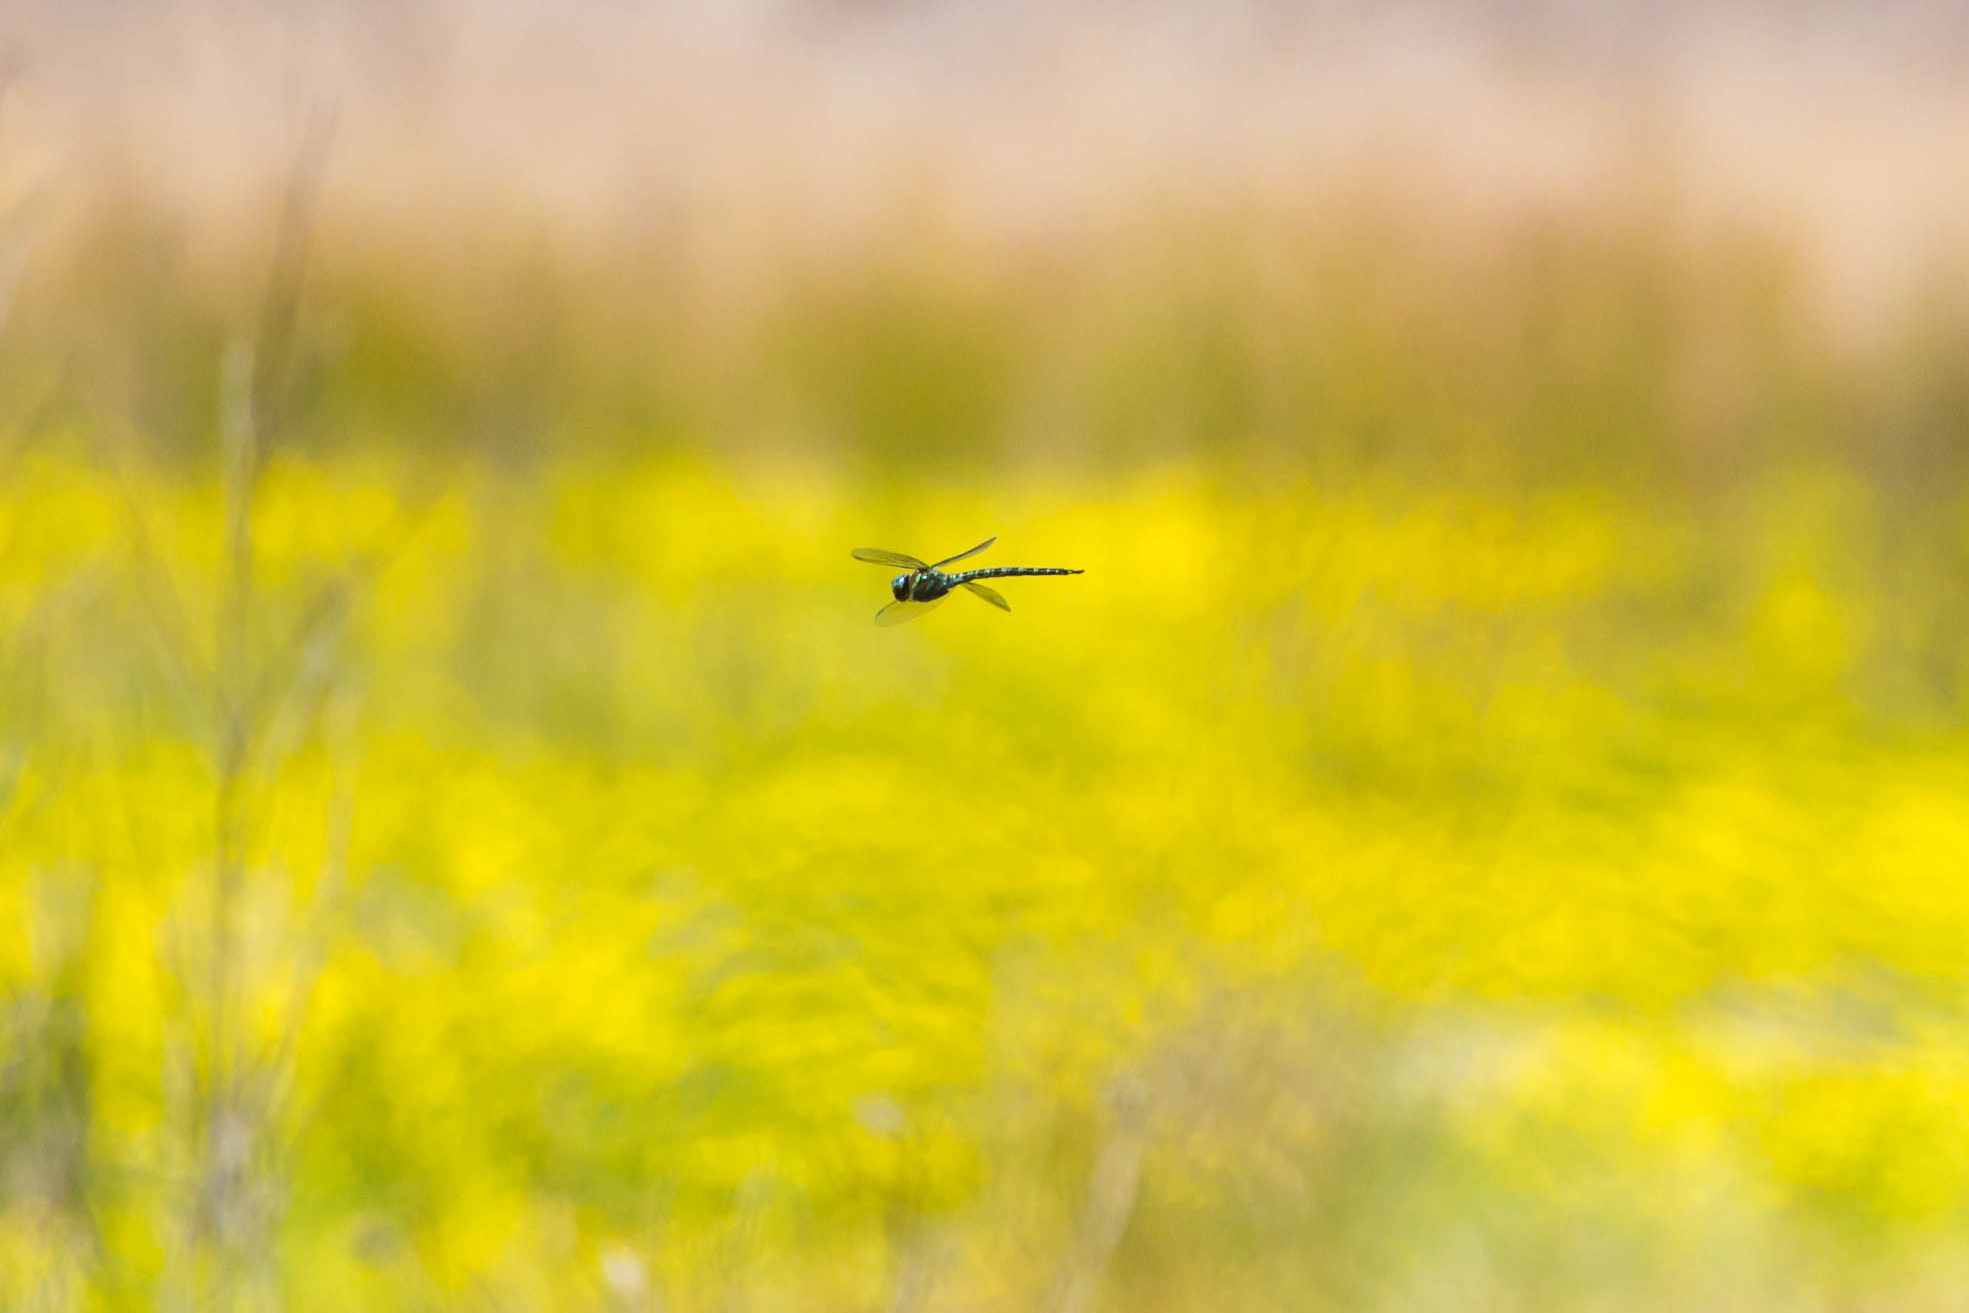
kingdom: Animalia
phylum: Arthropoda
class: Insecta
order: Odonata
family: Aeshnidae
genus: Epiaeschna
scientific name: Epiaeschna heros
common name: Swamp darner
